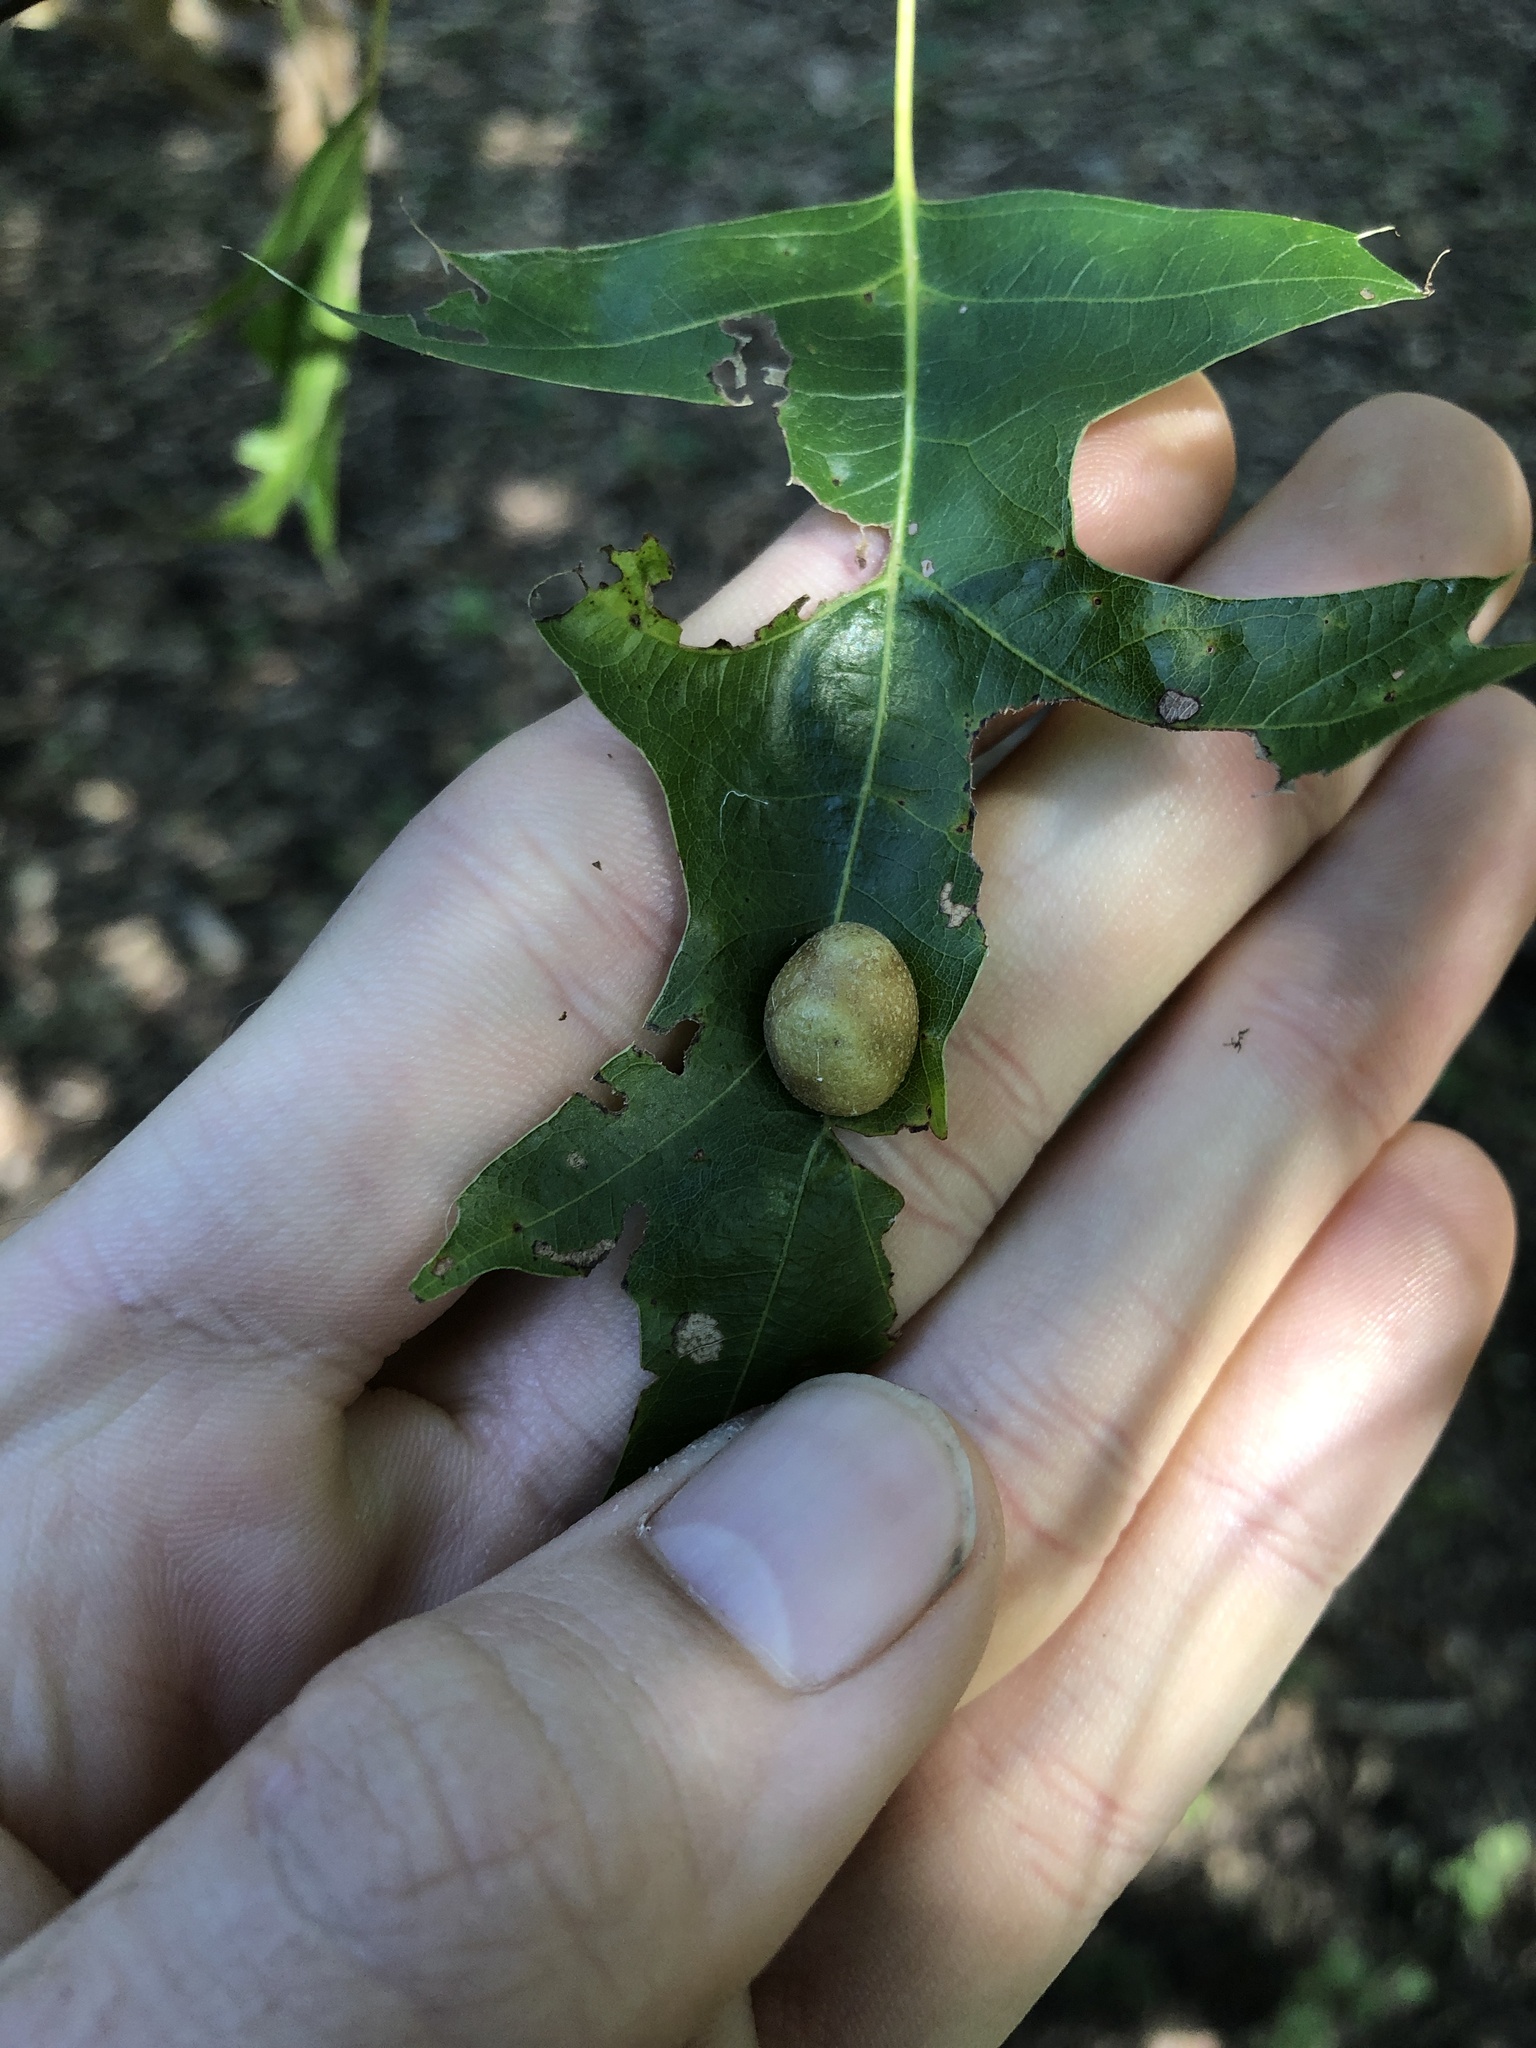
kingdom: Animalia
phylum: Arthropoda
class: Insecta
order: Diptera
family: Cecidomyiidae
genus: Polystepha
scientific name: Polystepha pilulae
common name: Oak leaf gall midge
